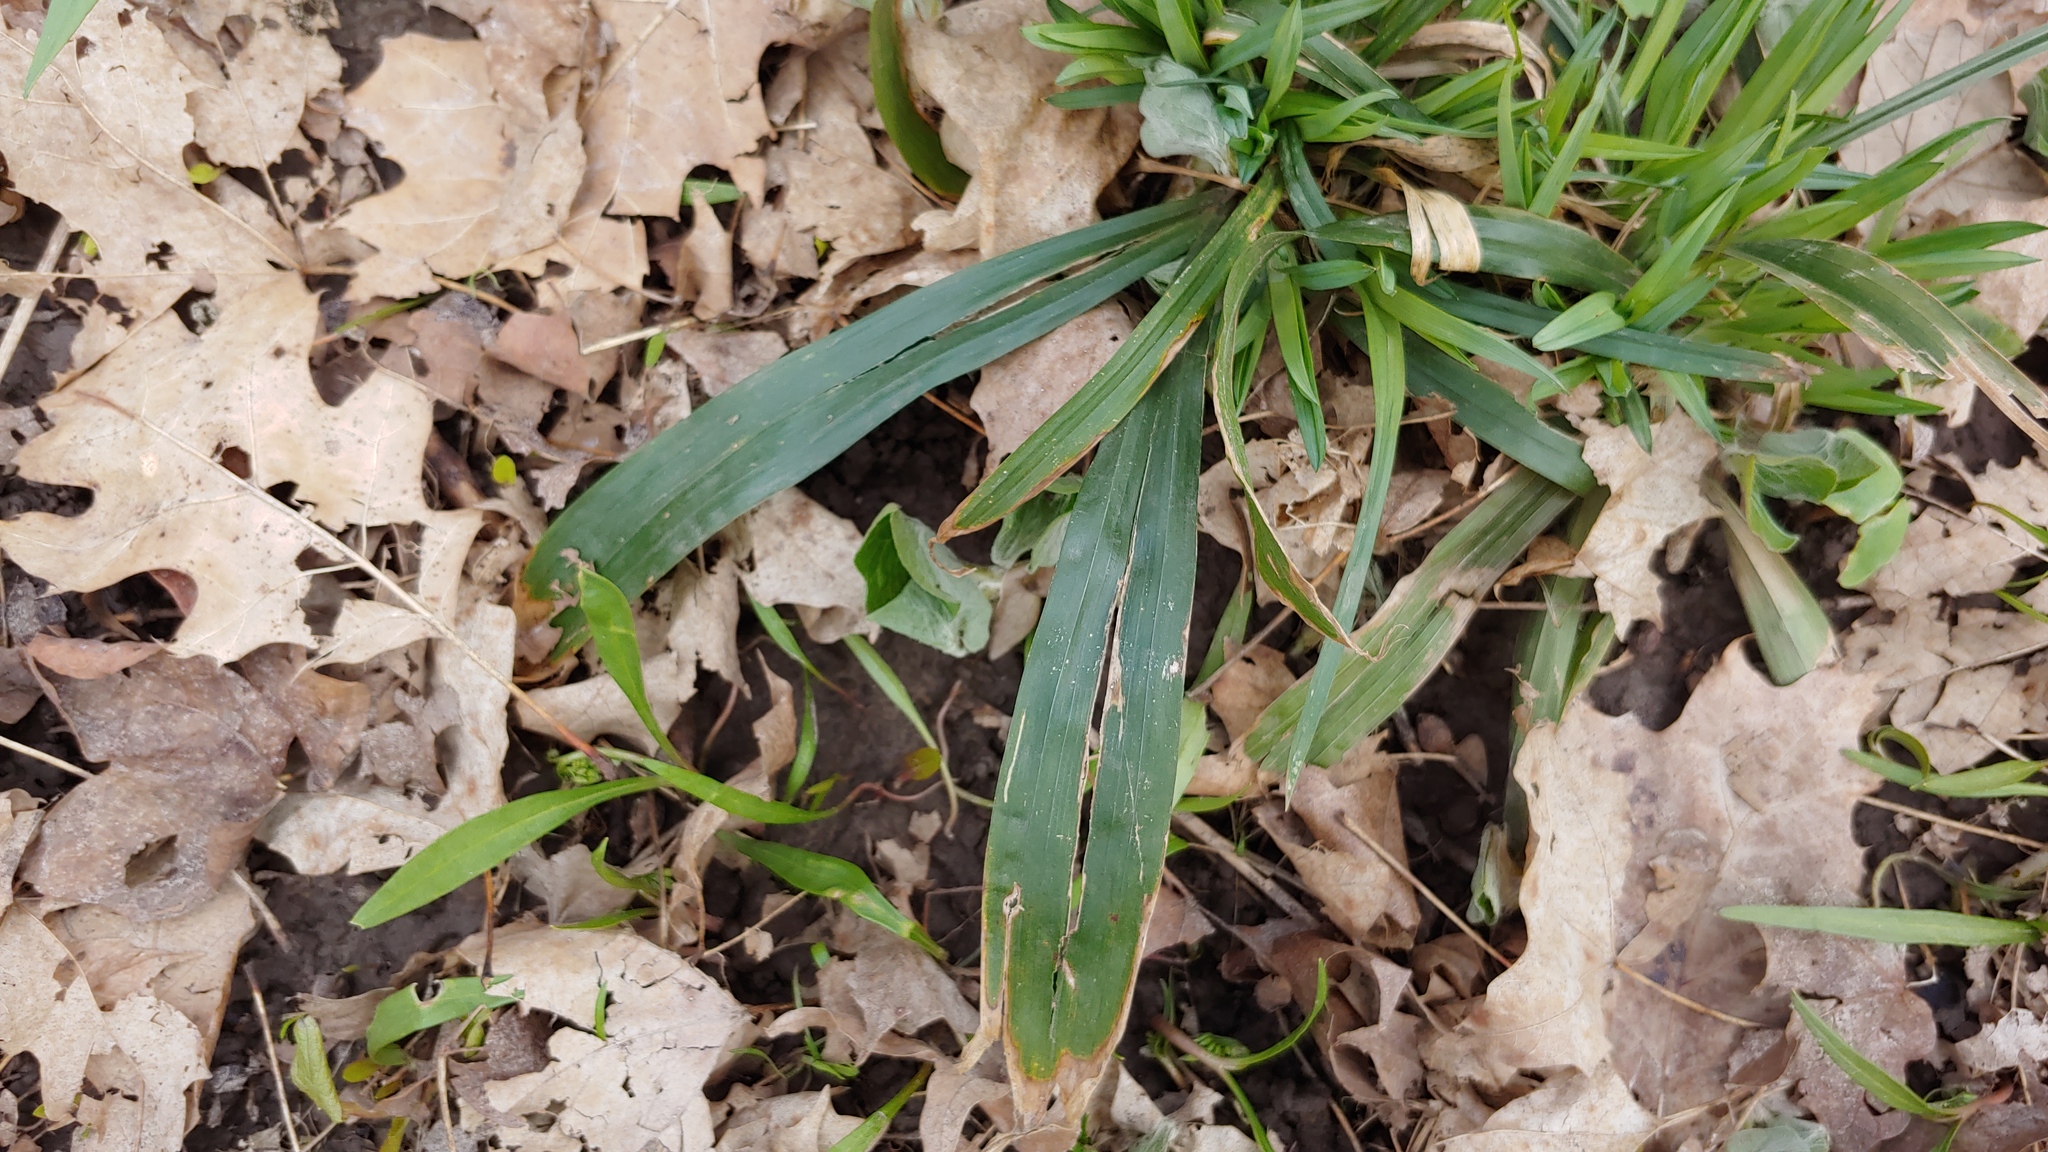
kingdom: Plantae
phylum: Tracheophyta
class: Liliopsida
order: Poales
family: Cyperaceae
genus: Carex
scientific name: Carex albursina
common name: Blunt-scale wood sedge
